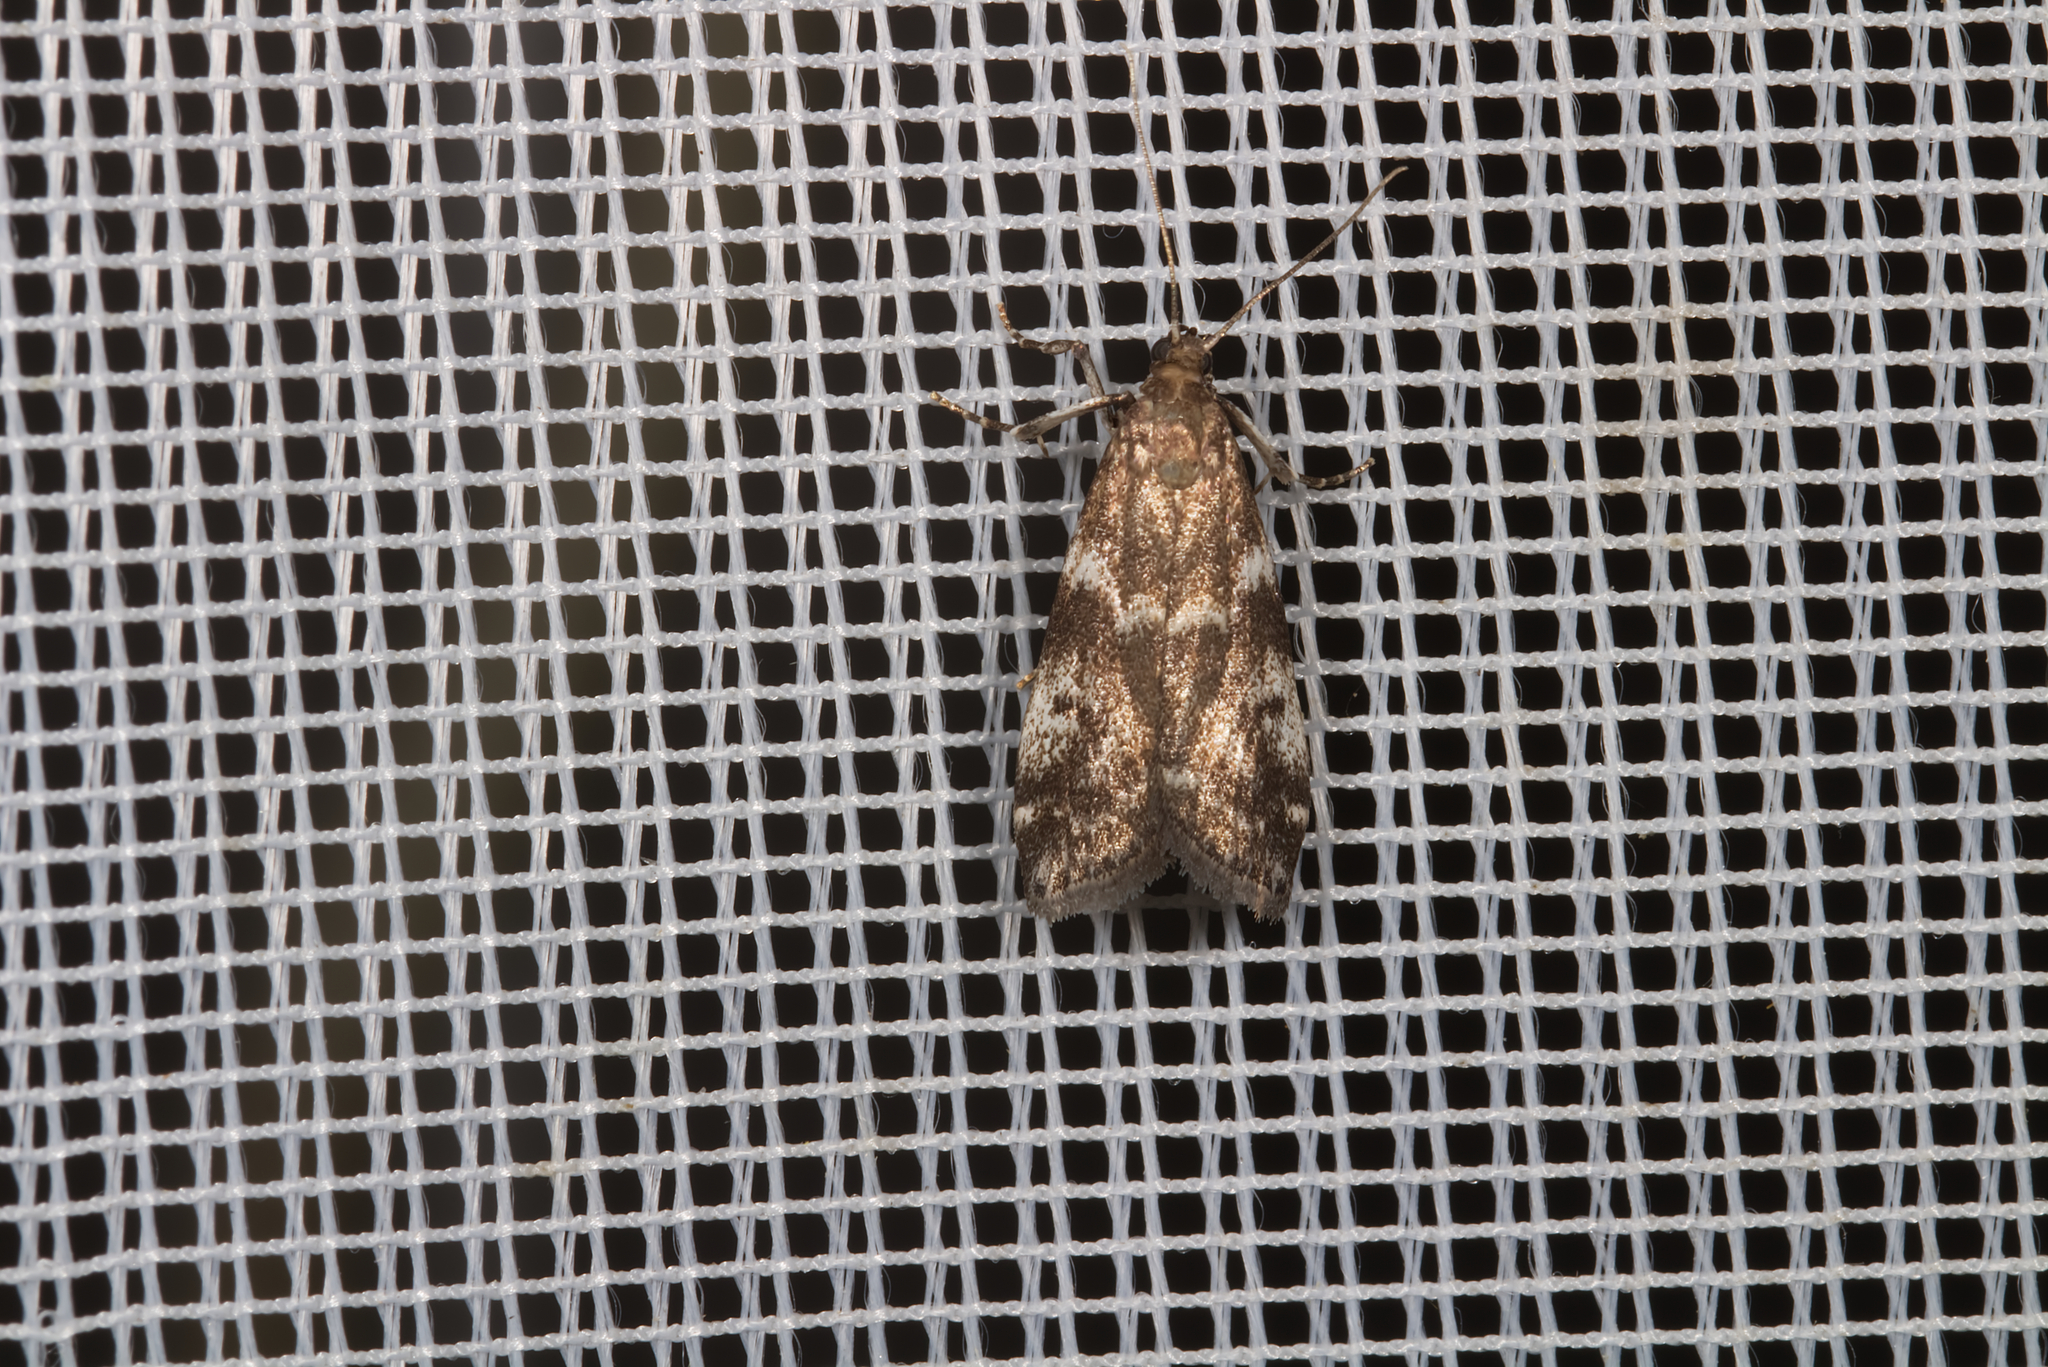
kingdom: Animalia
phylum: Arthropoda
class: Insecta
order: Lepidoptera
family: Pyralidae
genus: Assara
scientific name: Assara terebrella
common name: Dark spruce knot-horn
